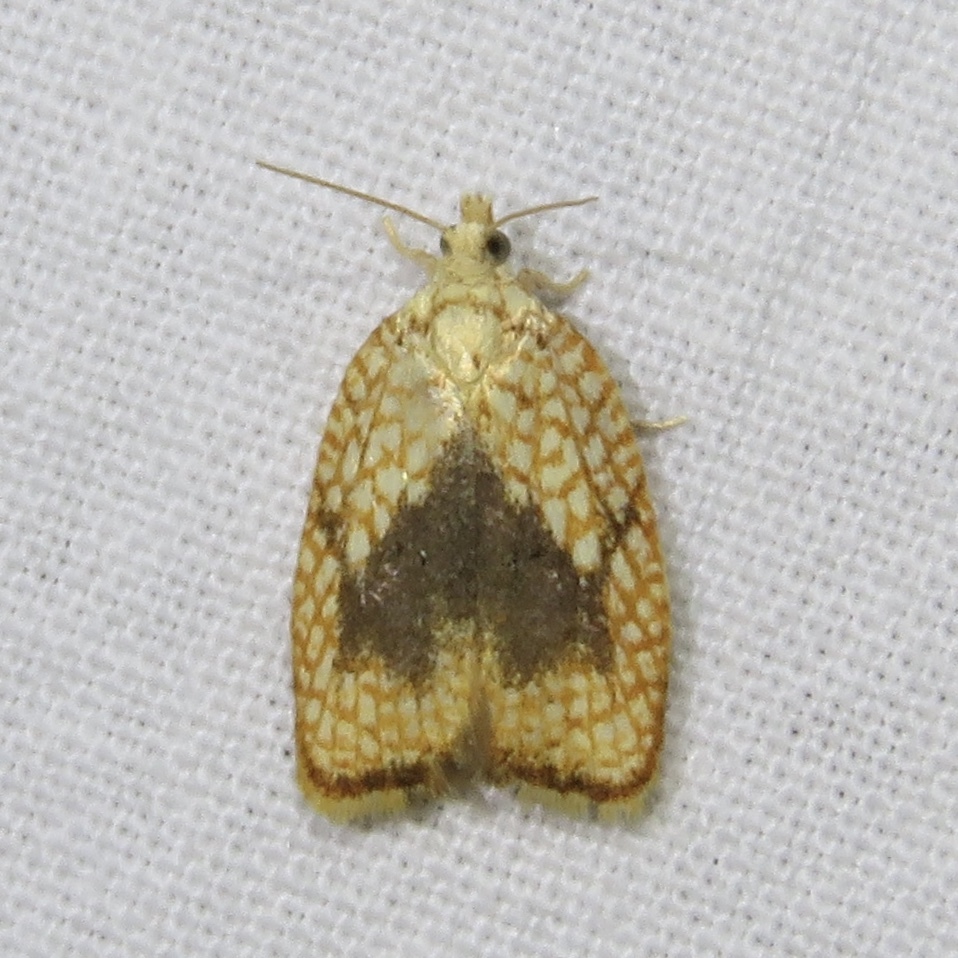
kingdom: Animalia
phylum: Arthropoda
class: Insecta
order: Lepidoptera
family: Tortricidae
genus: Acleris
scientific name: Acleris forsskaleana
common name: Maple button
